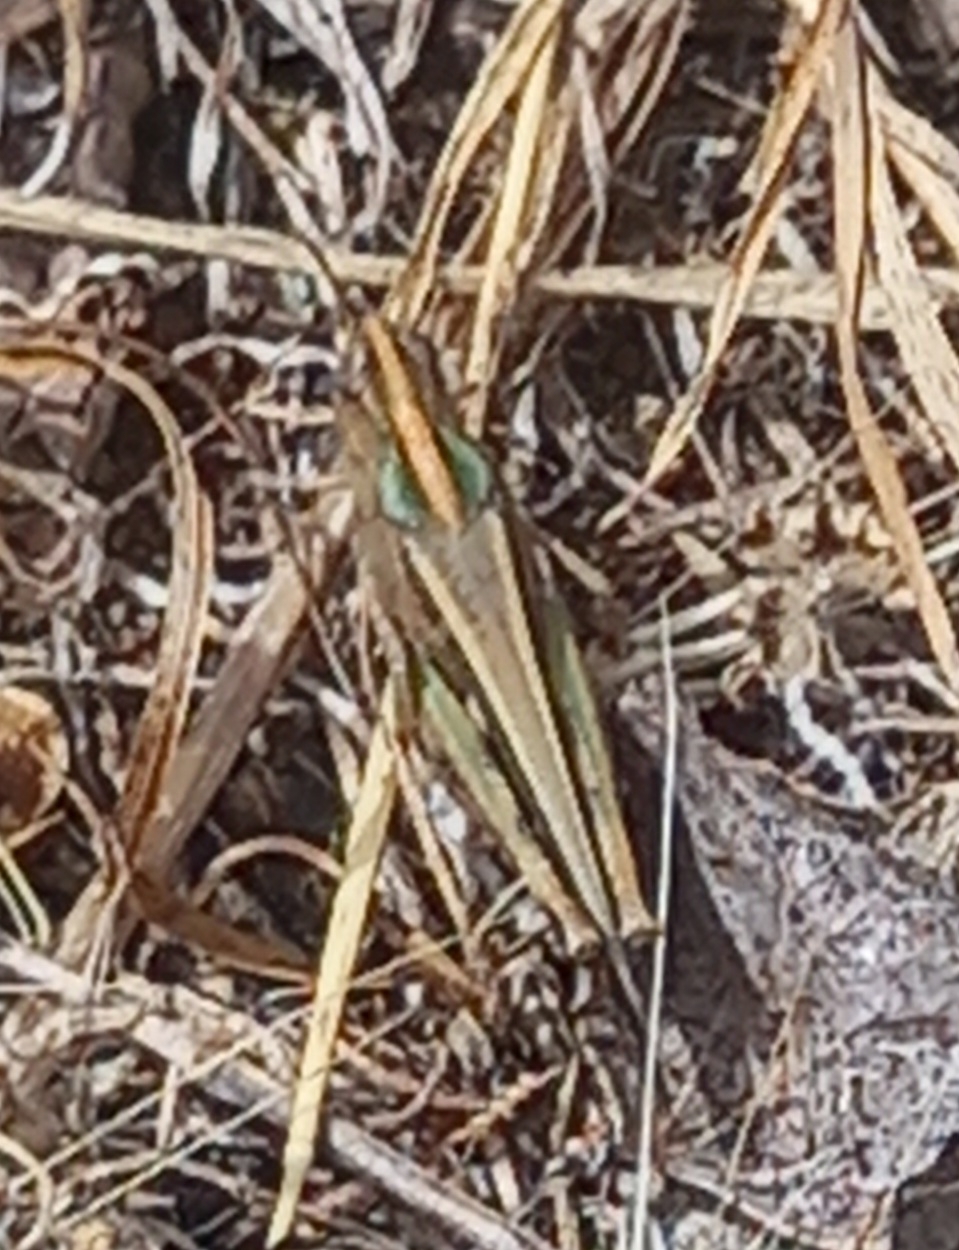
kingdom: Animalia
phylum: Arthropoda
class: Insecta
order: Orthoptera
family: Acrididae
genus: Aiolopus
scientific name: Aiolopus strepens
